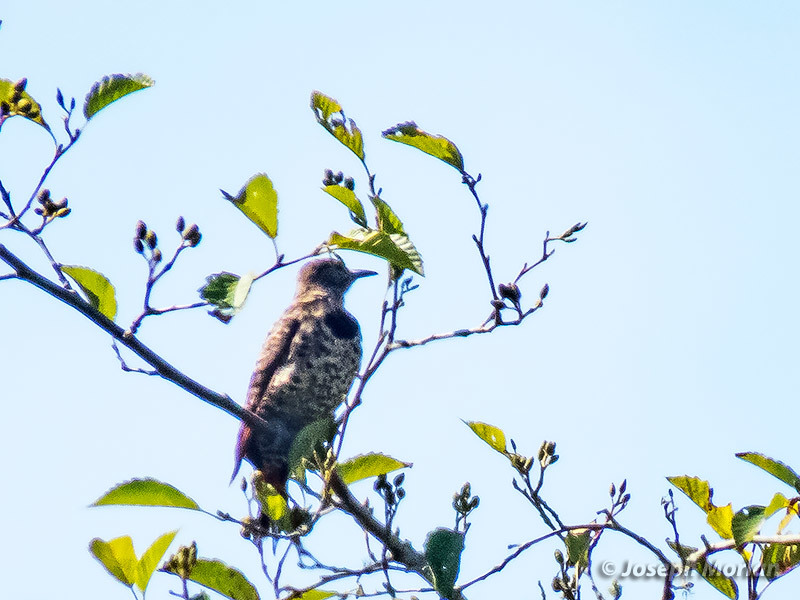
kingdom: Animalia
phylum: Chordata
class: Aves
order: Piciformes
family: Picidae
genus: Colaptes
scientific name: Colaptes auratus
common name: Northern flicker
